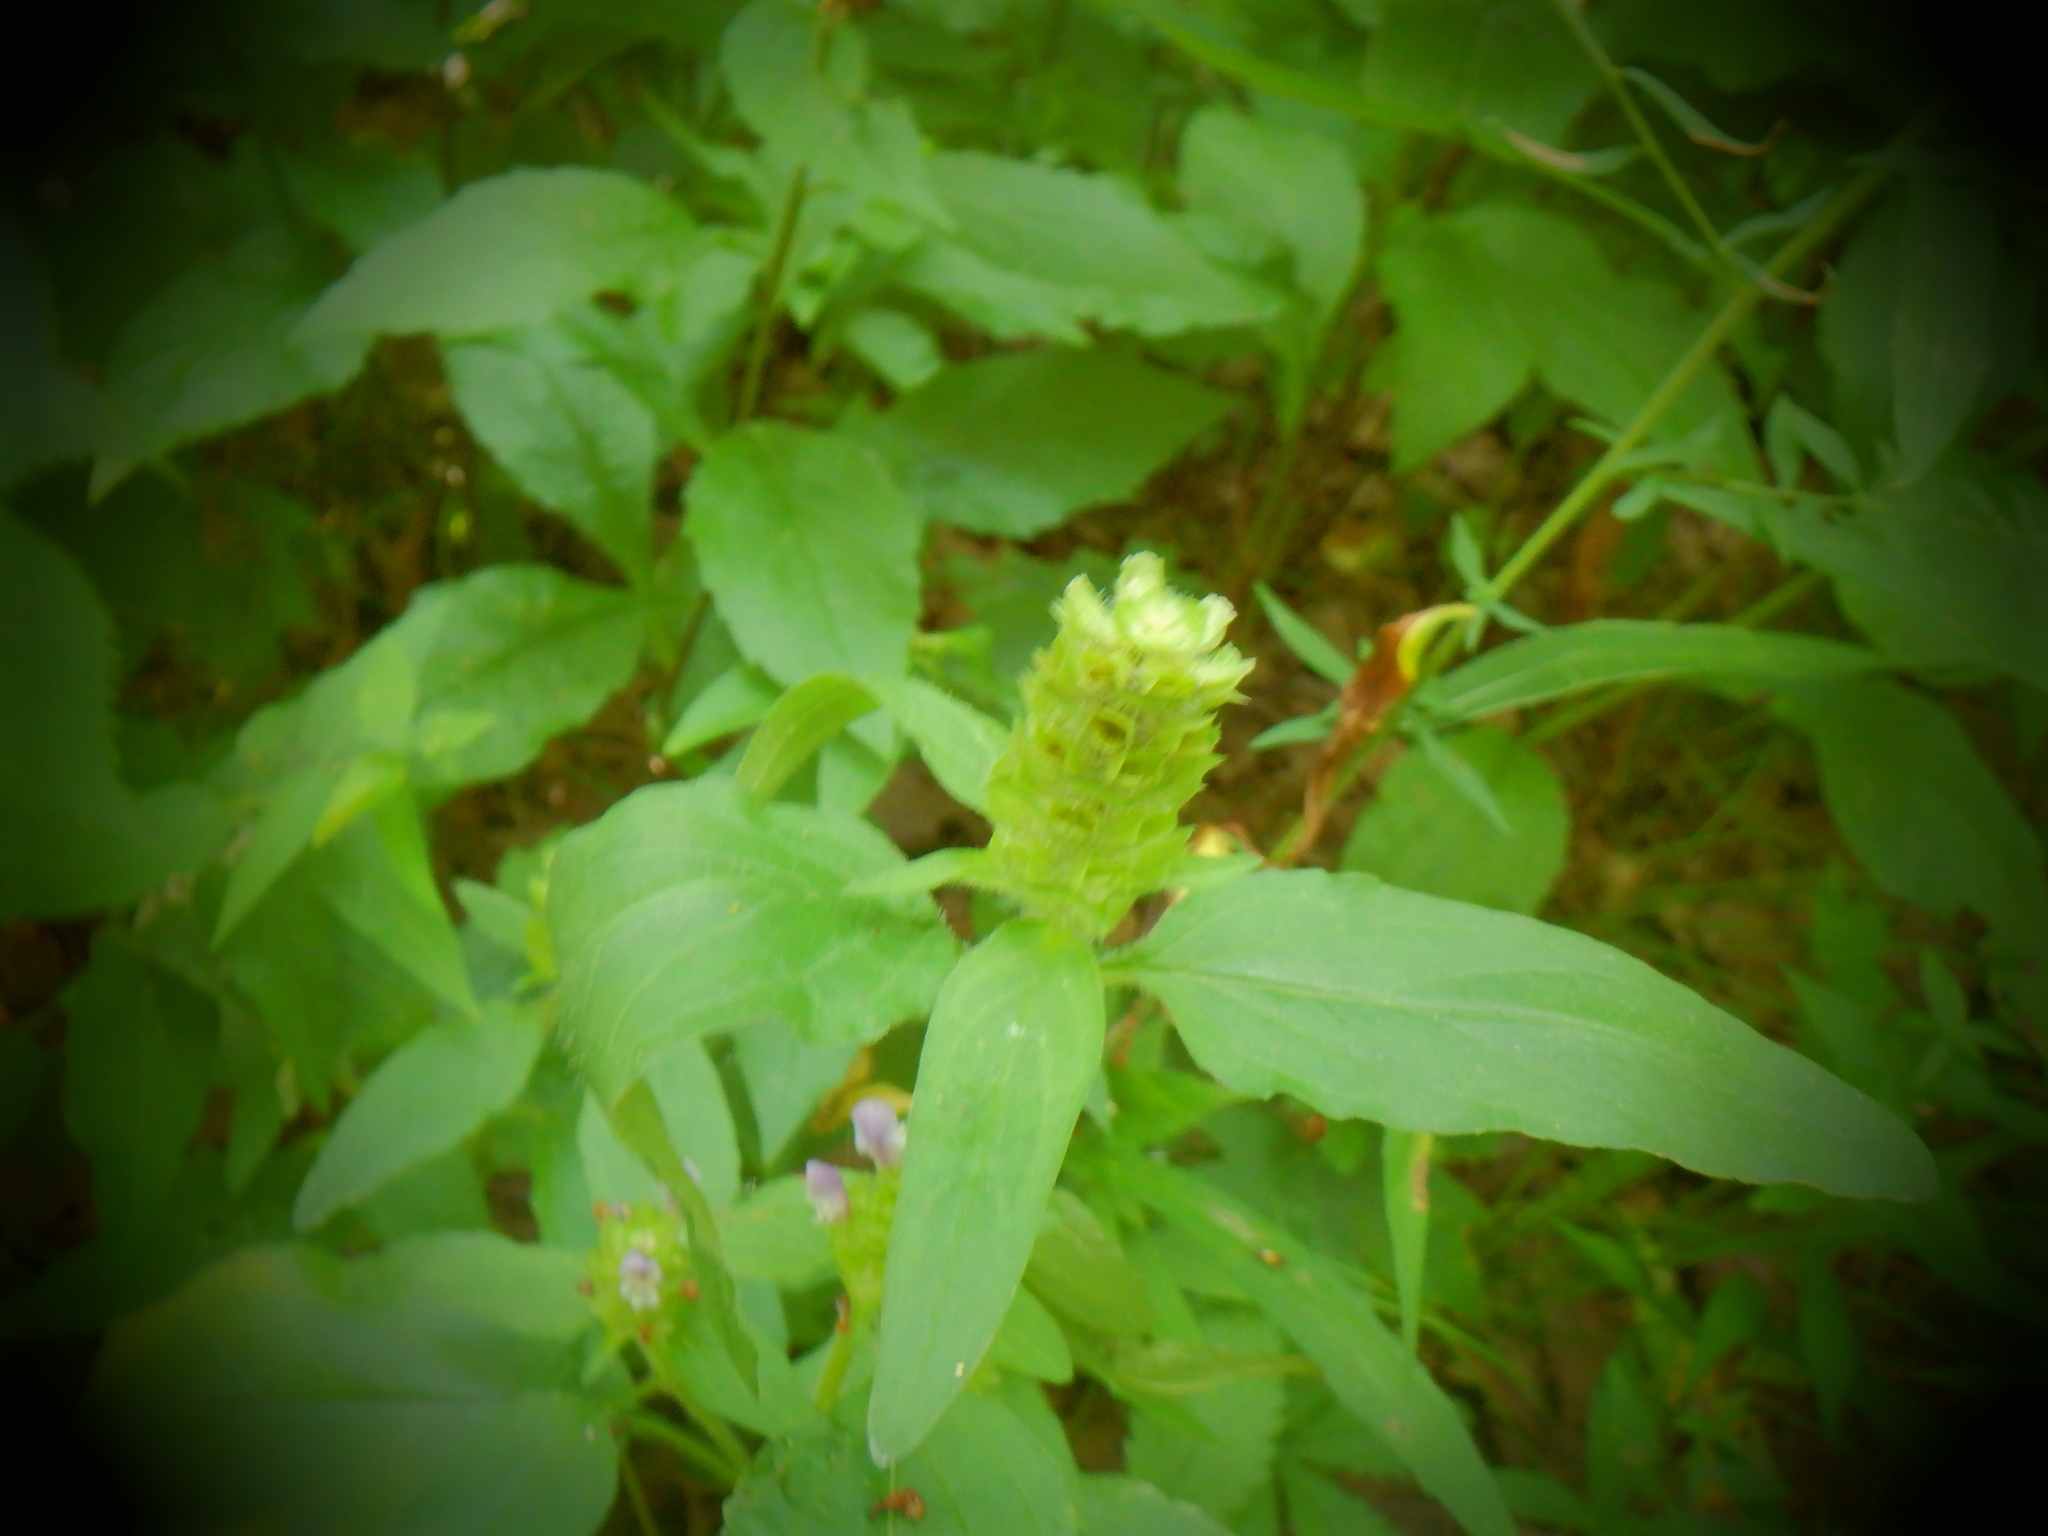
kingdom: Plantae
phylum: Tracheophyta
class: Magnoliopsida
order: Lamiales
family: Lamiaceae
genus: Prunella
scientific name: Prunella vulgaris
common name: Heal-all
